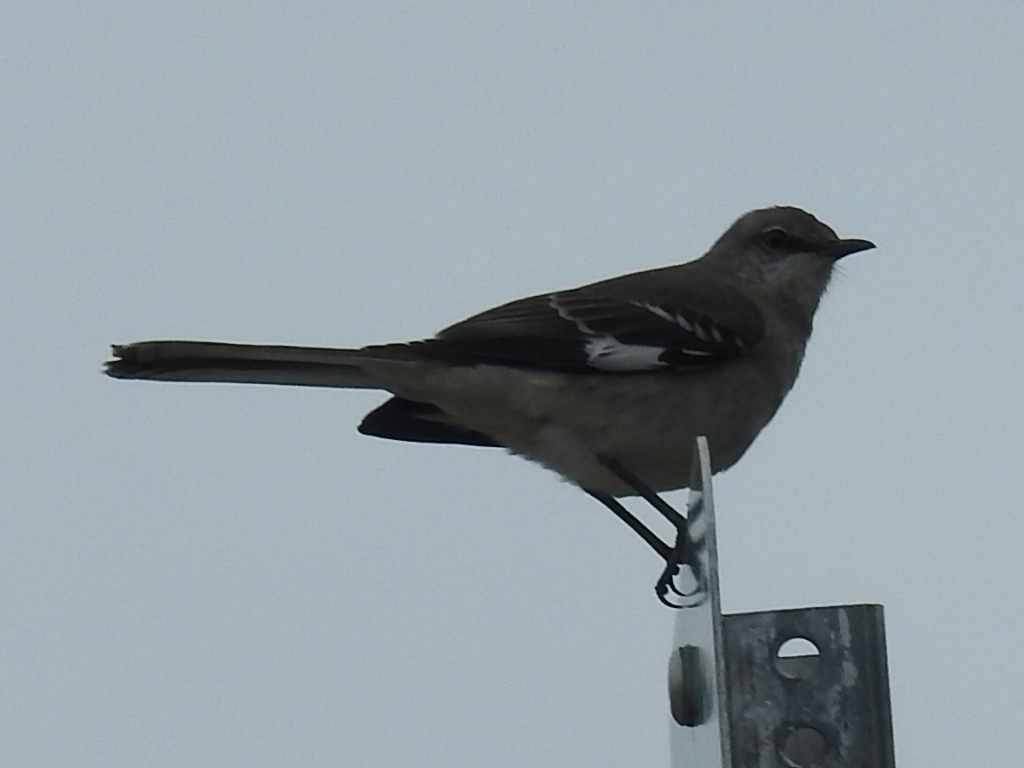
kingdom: Animalia
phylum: Chordata
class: Aves
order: Passeriformes
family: Mimidae
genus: Mimus
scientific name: Mimus polyglottos
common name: Northern mockingbird
